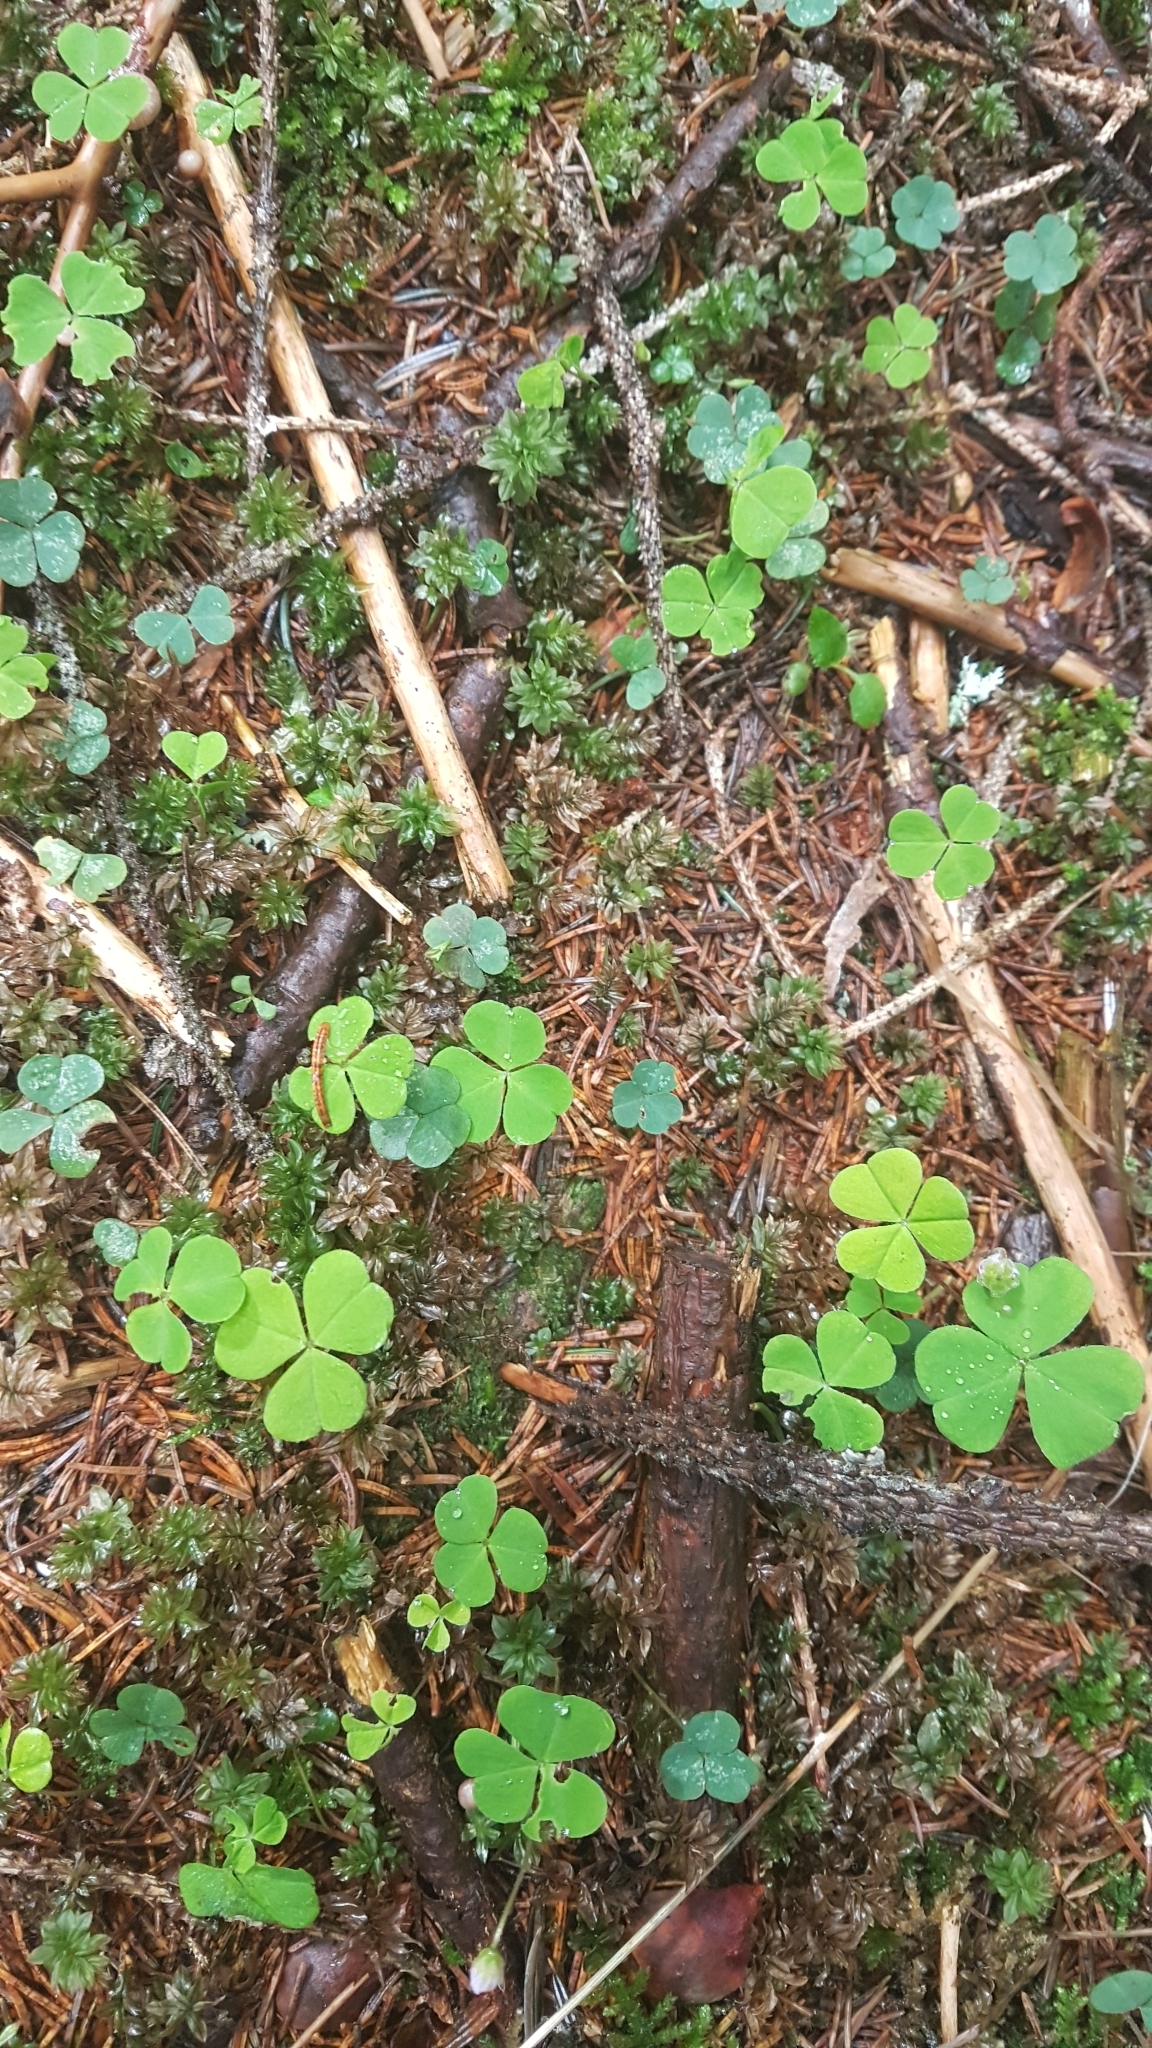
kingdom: Plantae
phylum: Tracheophyta
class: Magnoliopsida
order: Oxalidales
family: Oxalidaceae
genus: Oxalis
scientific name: Oxalis acetosella
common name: Wood-sorrel
